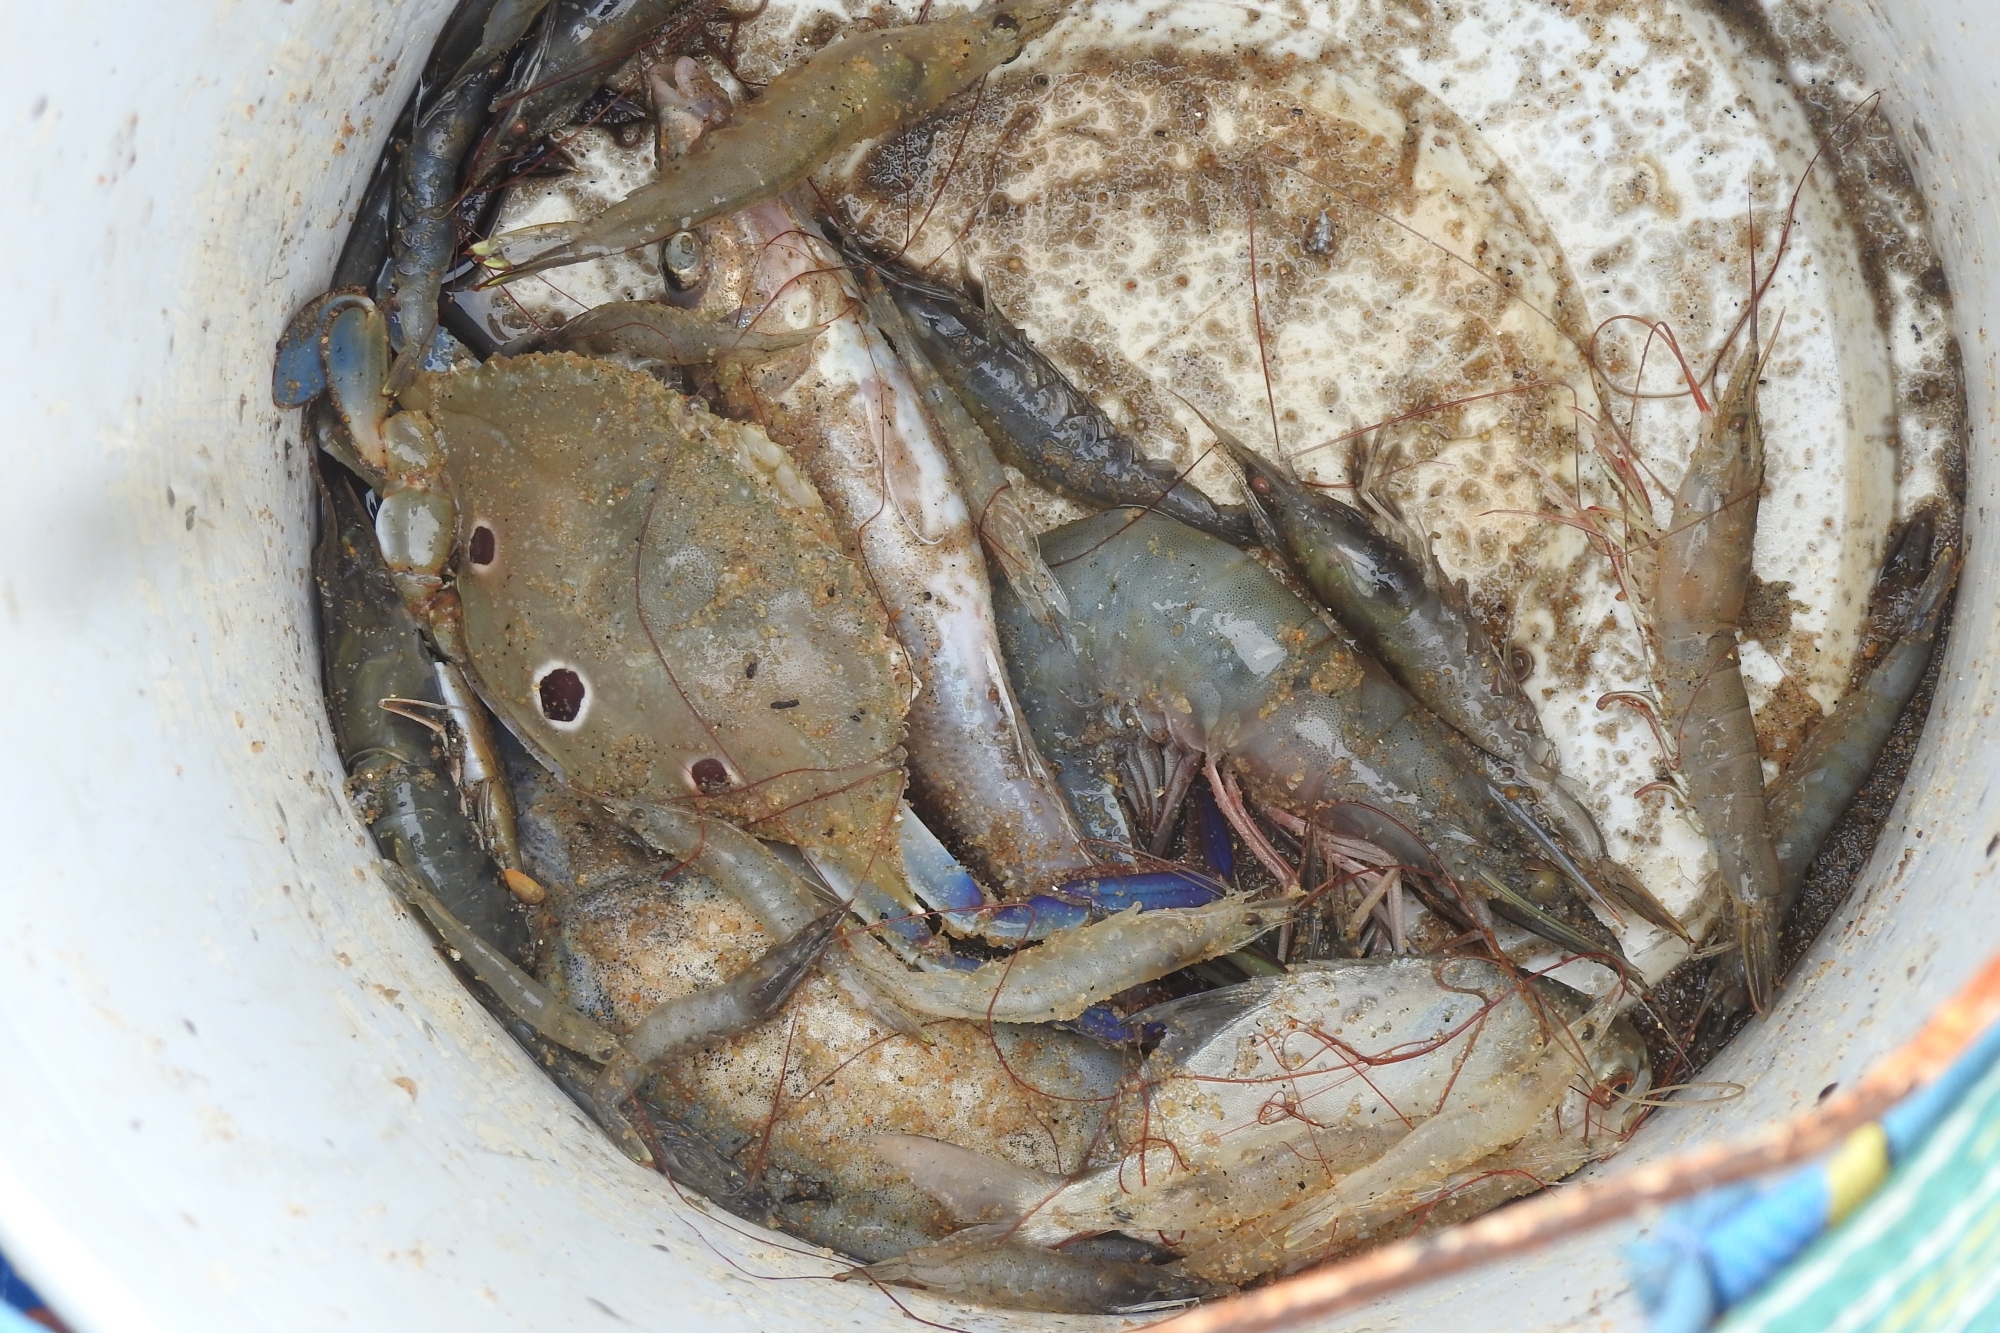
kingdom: Animalia
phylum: Arthropoda
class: Malacostraca
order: Decapoda
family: Portunidae
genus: Portunus
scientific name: Portunus sanguinolentus
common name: Blood-spotted swimming crab
